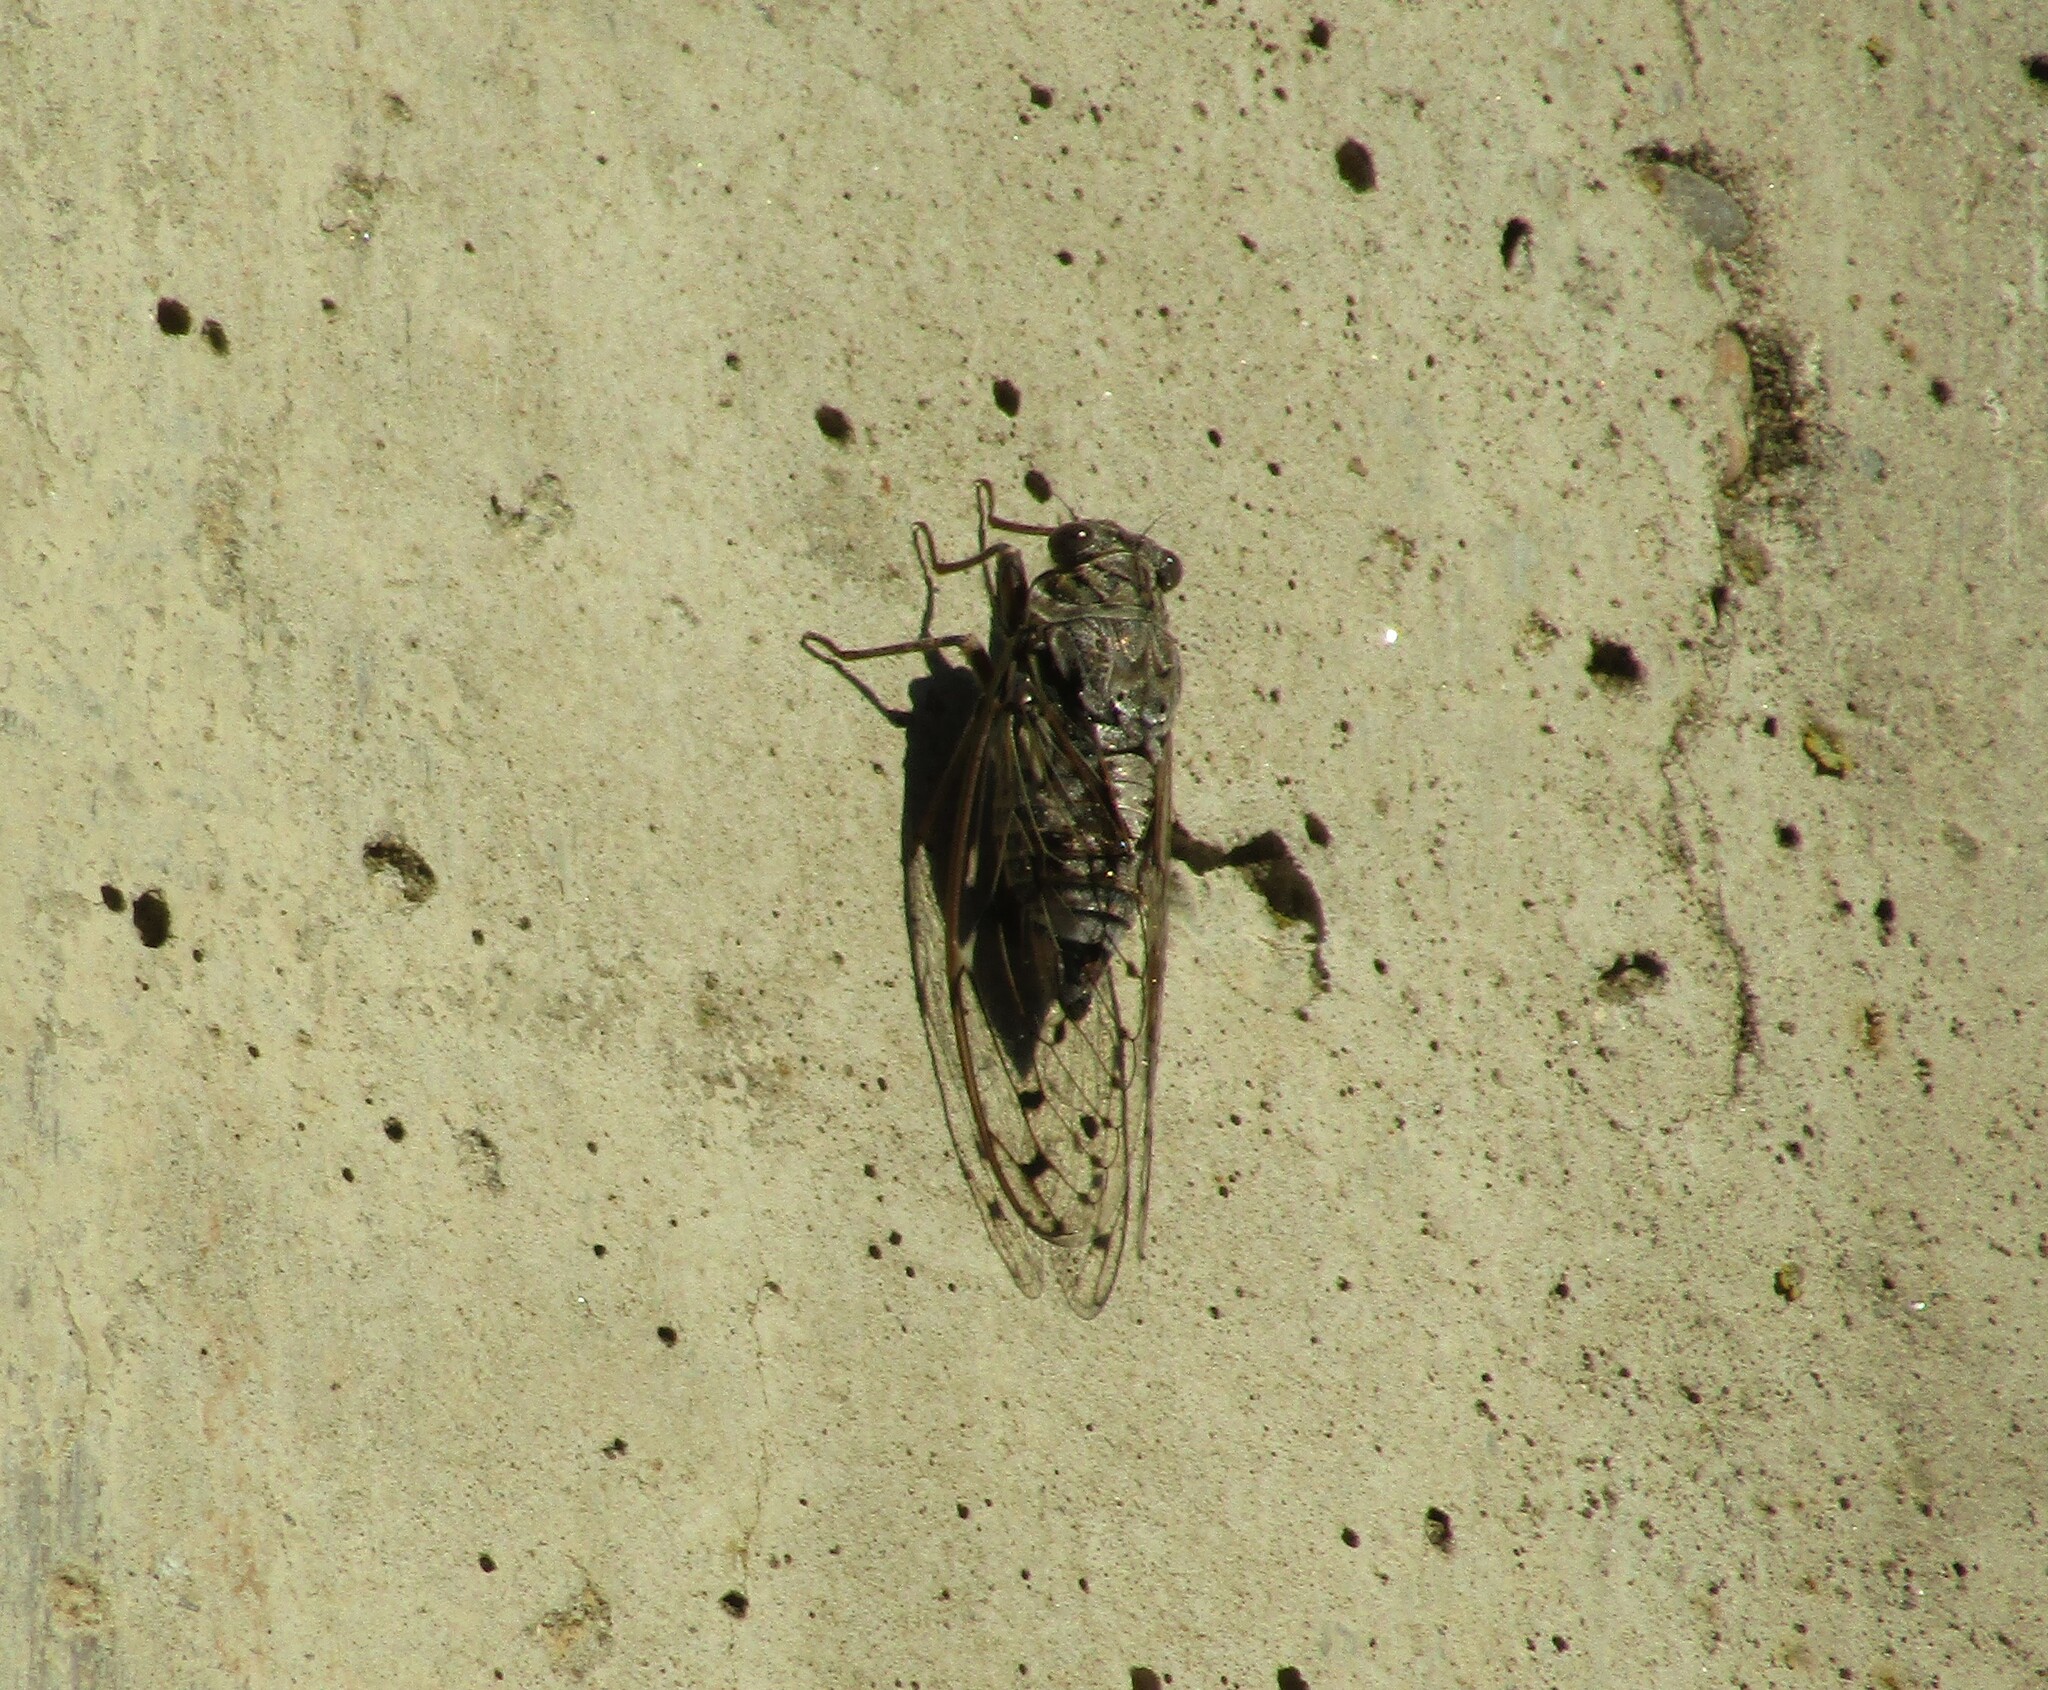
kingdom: Animalia
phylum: Arthropoda
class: Insecta
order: Hemiptera
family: Cicadidae
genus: Cicada
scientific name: Cicada orni
